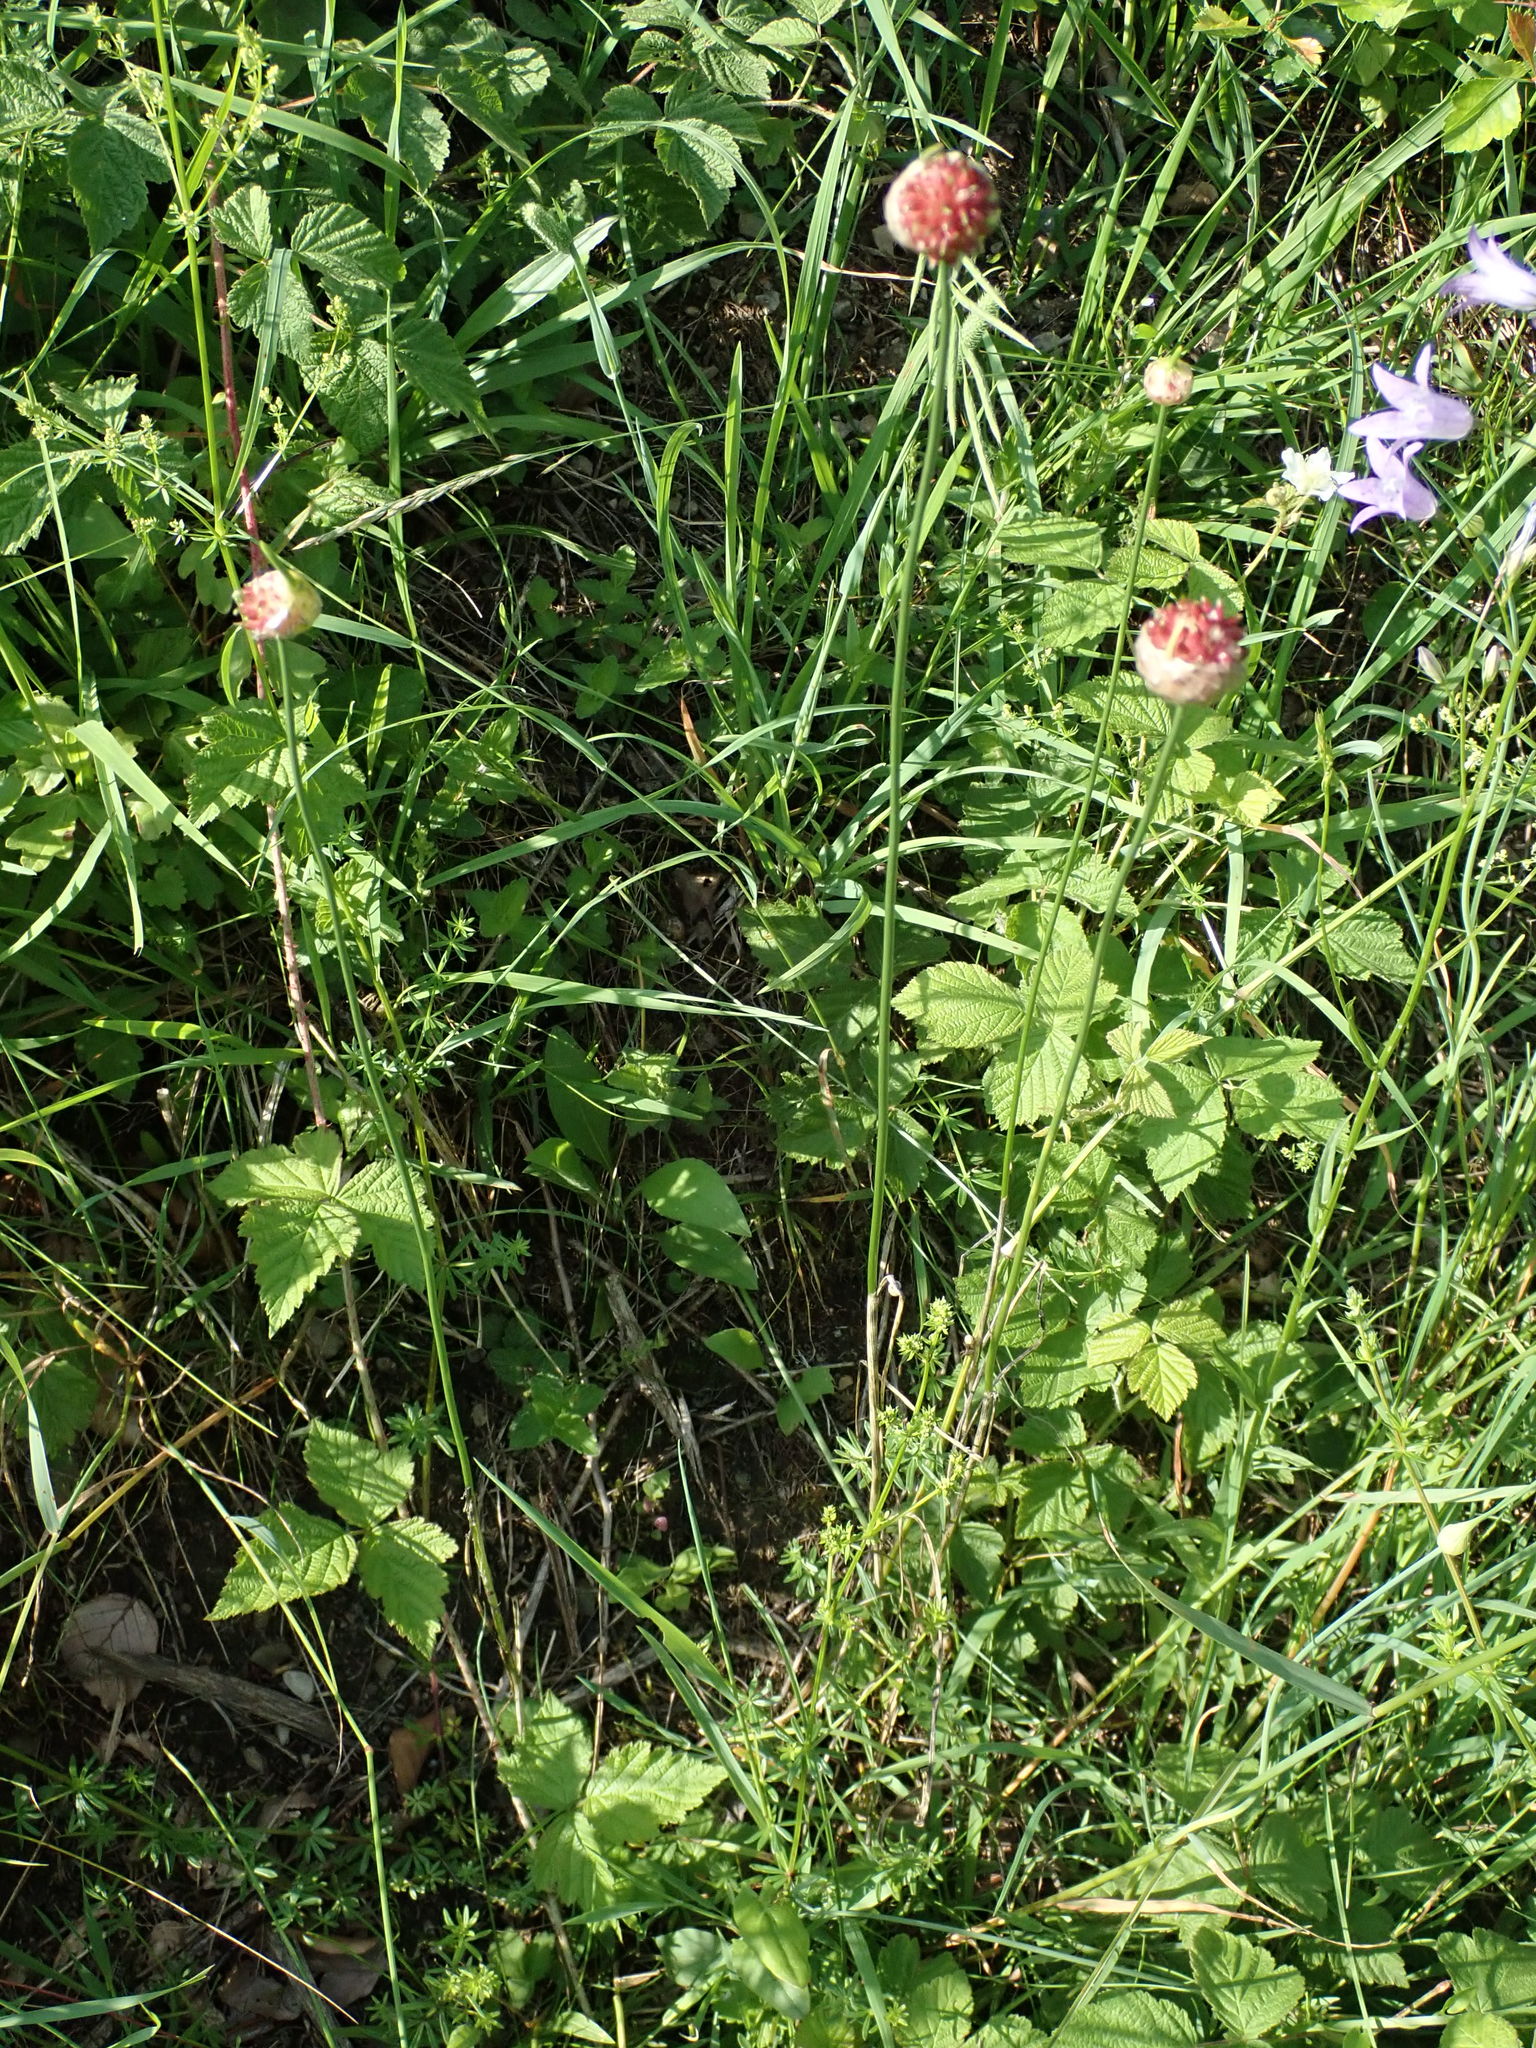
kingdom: Plantae
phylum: Tracheophyta
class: Liliopsida
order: Asparagales
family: Amaryllidaceae
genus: Allium
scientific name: Allium vineale
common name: Crow garlic
